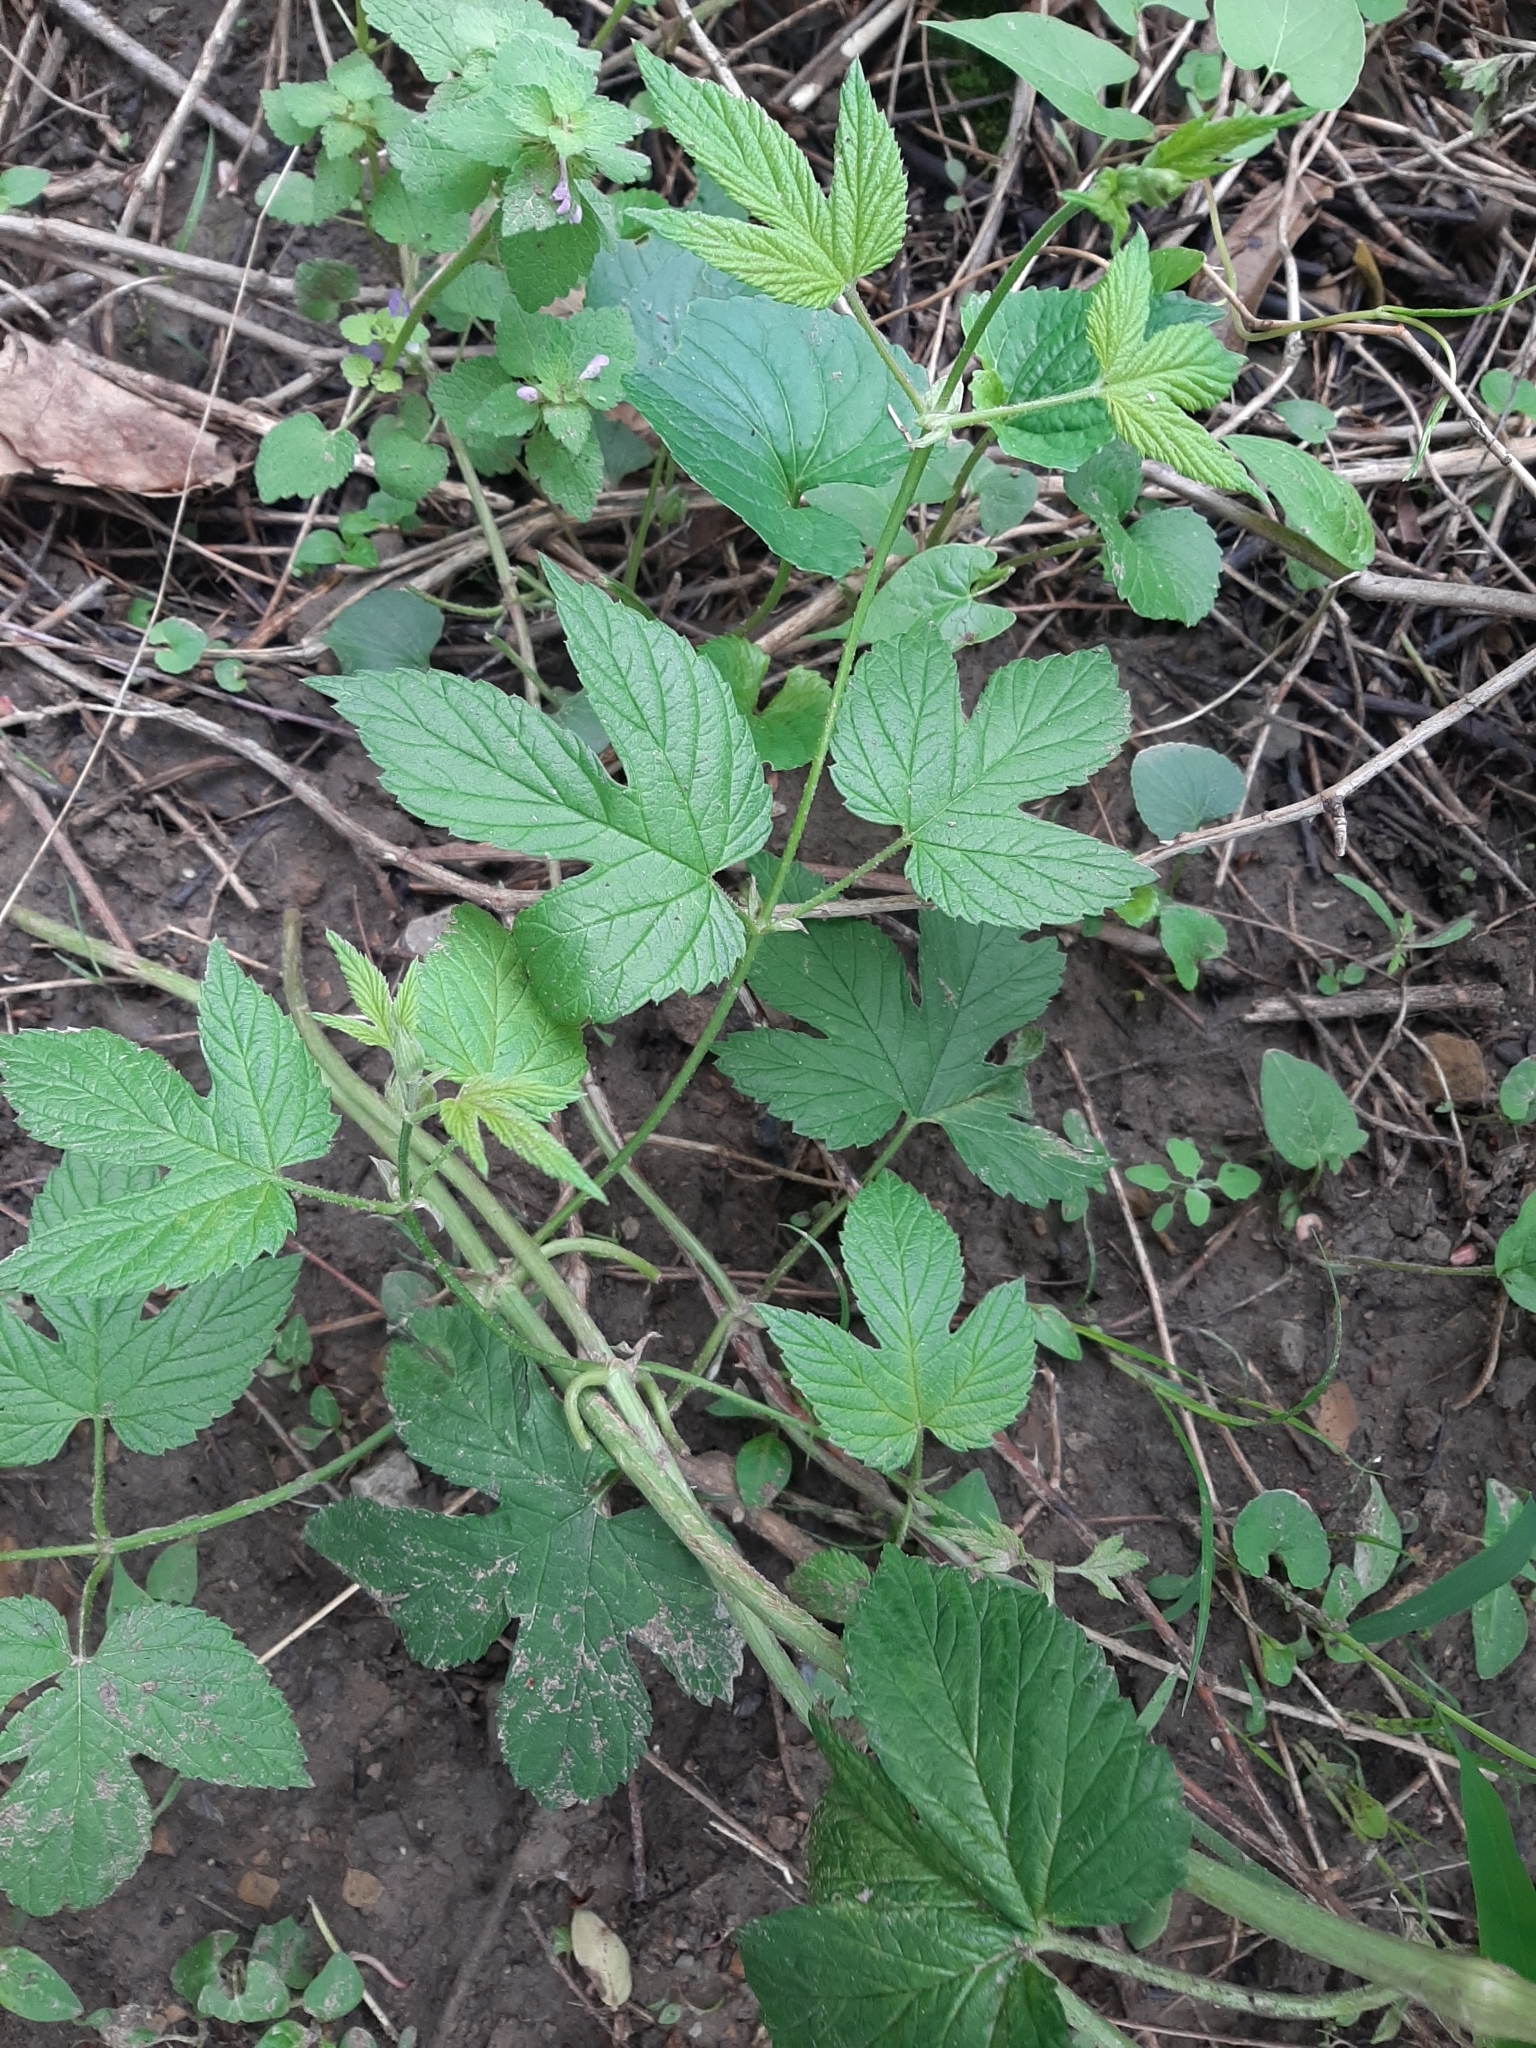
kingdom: Plantae
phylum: Tracheophyta
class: Magnoliopsida
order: Rosales
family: Cannabaceae
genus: Humulus
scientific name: Humulus lupulus
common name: Hop
